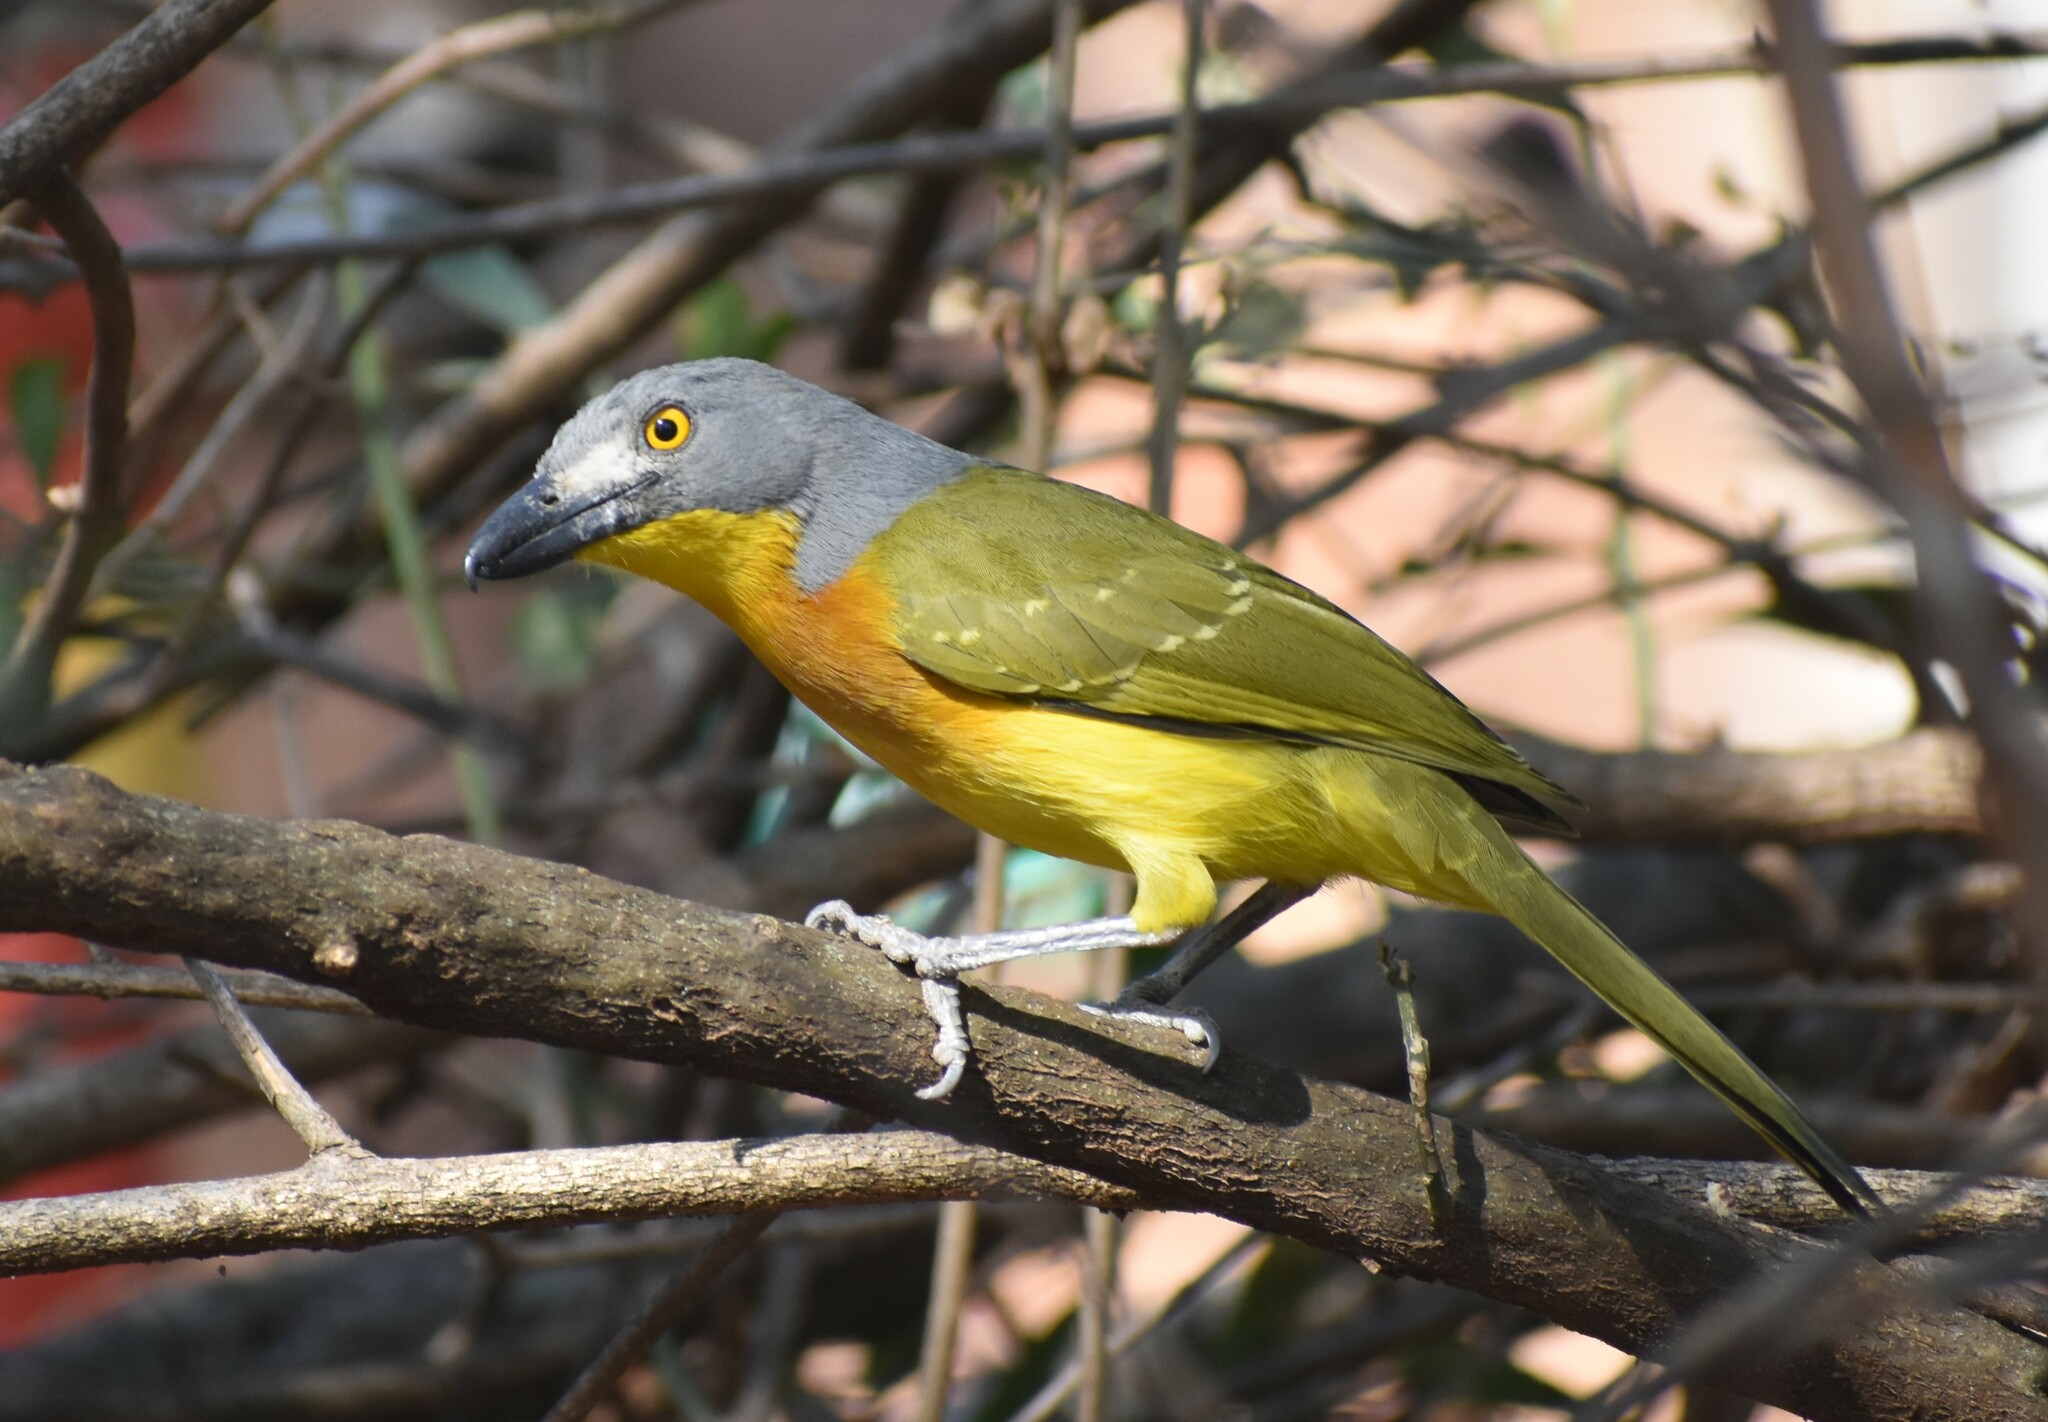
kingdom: Animalia
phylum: Chordata
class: Aves
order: Passeriformes
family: Malaconotidae
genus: Malaconotus
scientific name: Malaconotus blanchoti
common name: Grey-headed bushshrike
